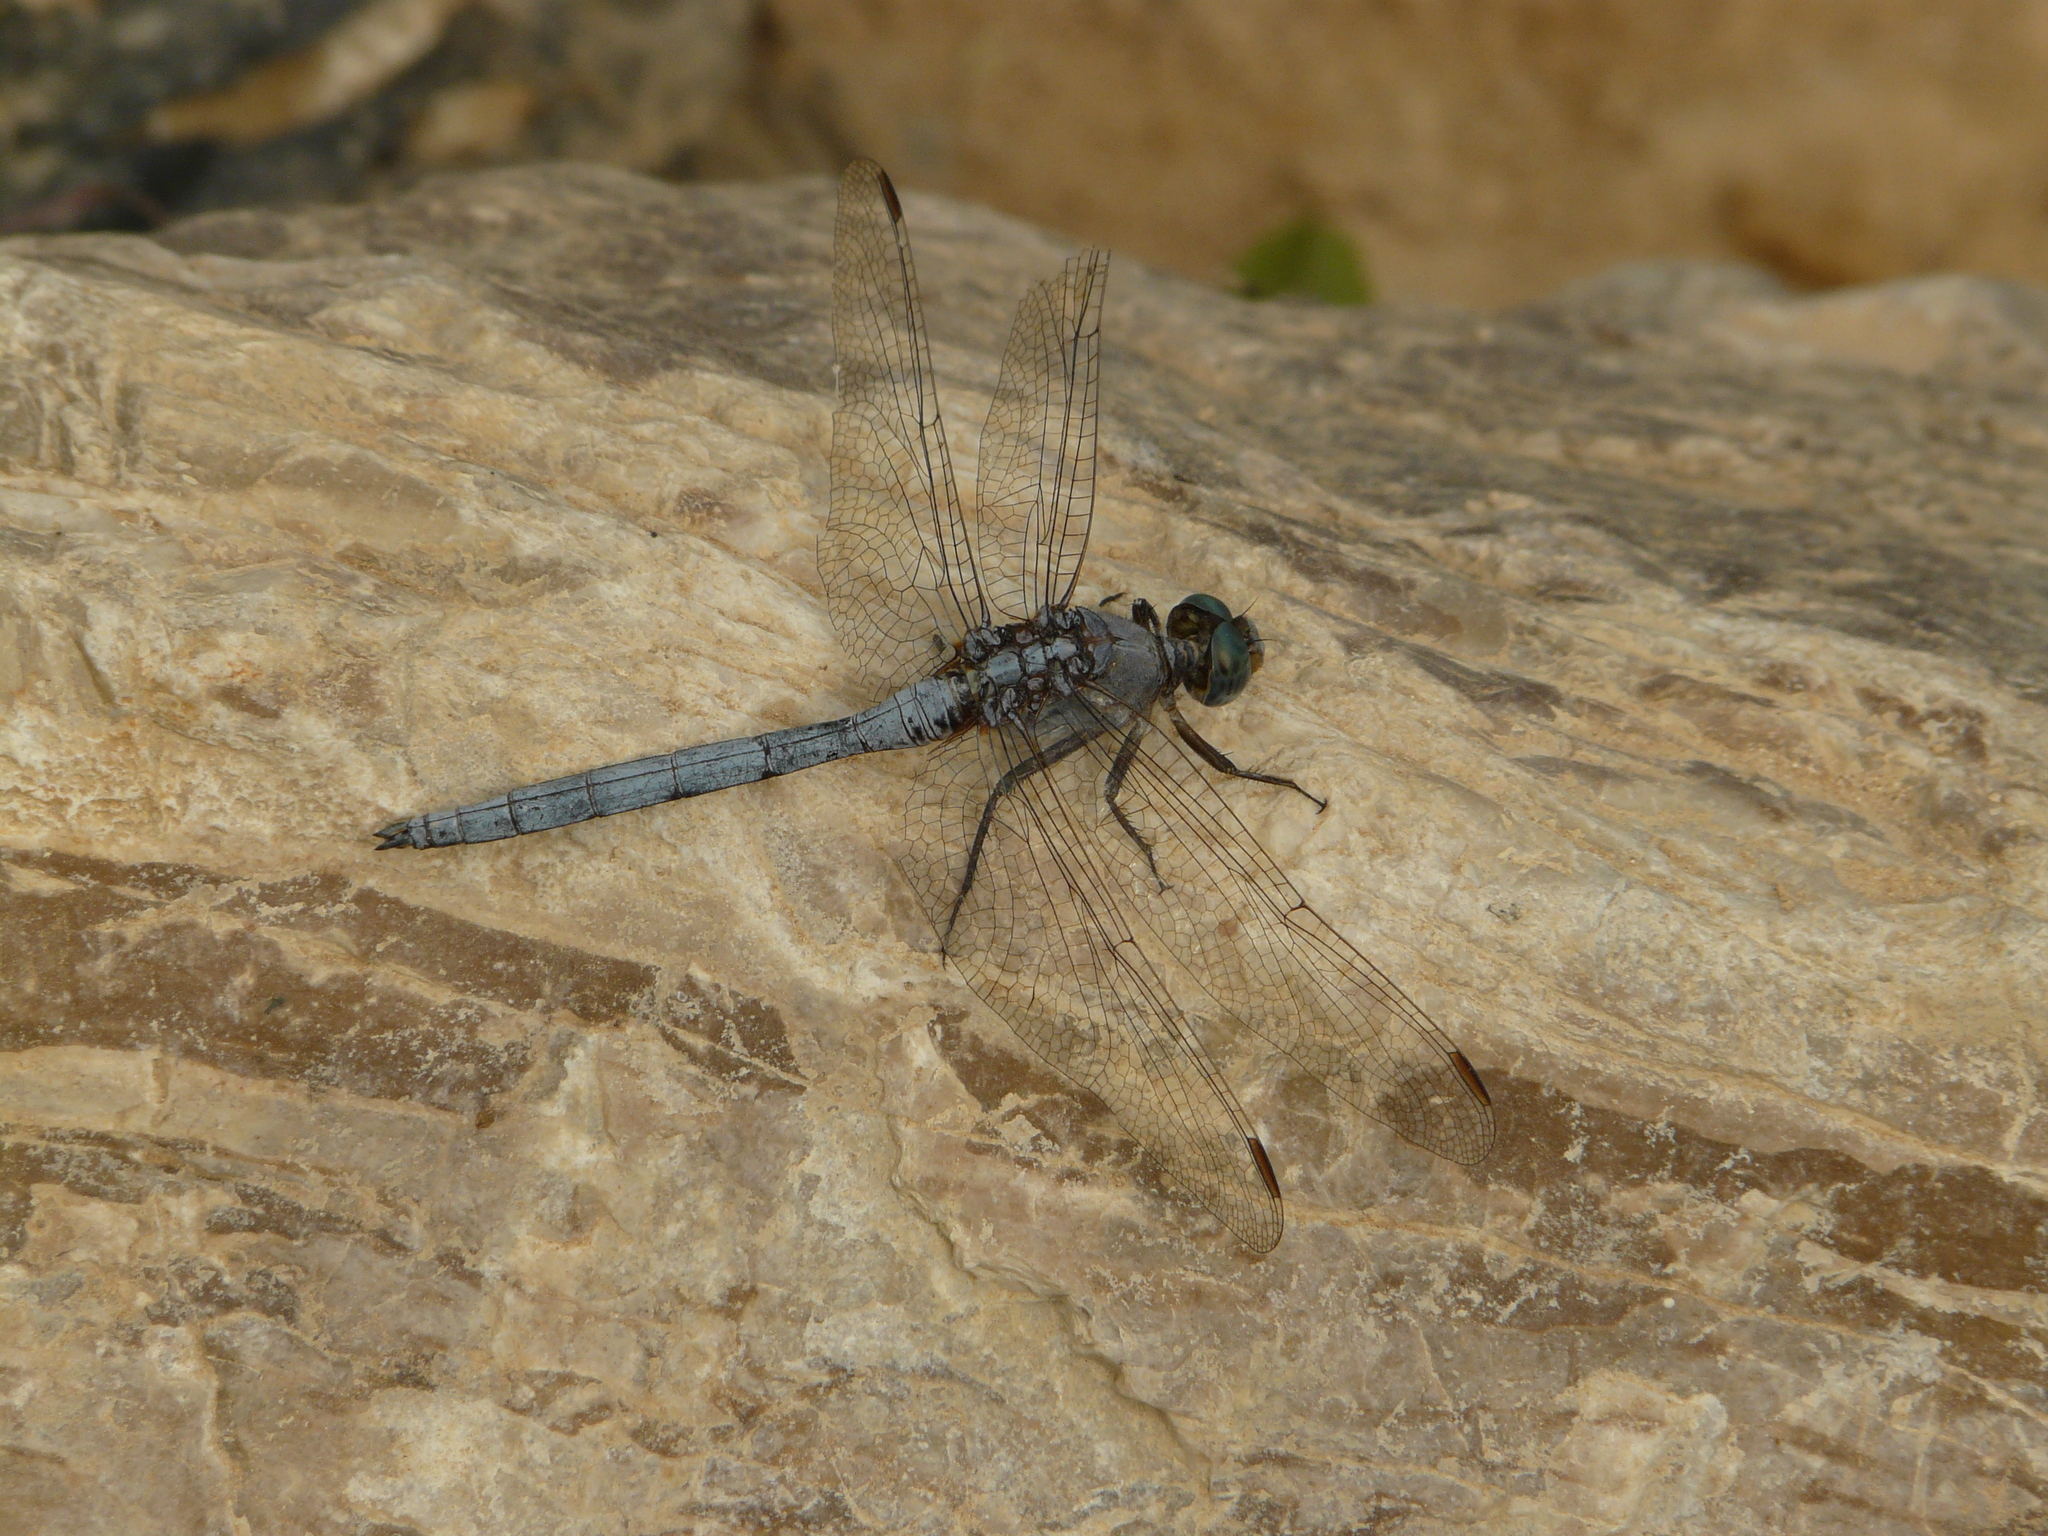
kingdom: Animalia
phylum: Arthropoda
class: Insecta
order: Odonata
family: Libellulidae
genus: Orthetrum
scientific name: Orthetrum chrysostigma
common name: Epaulet skimmer
